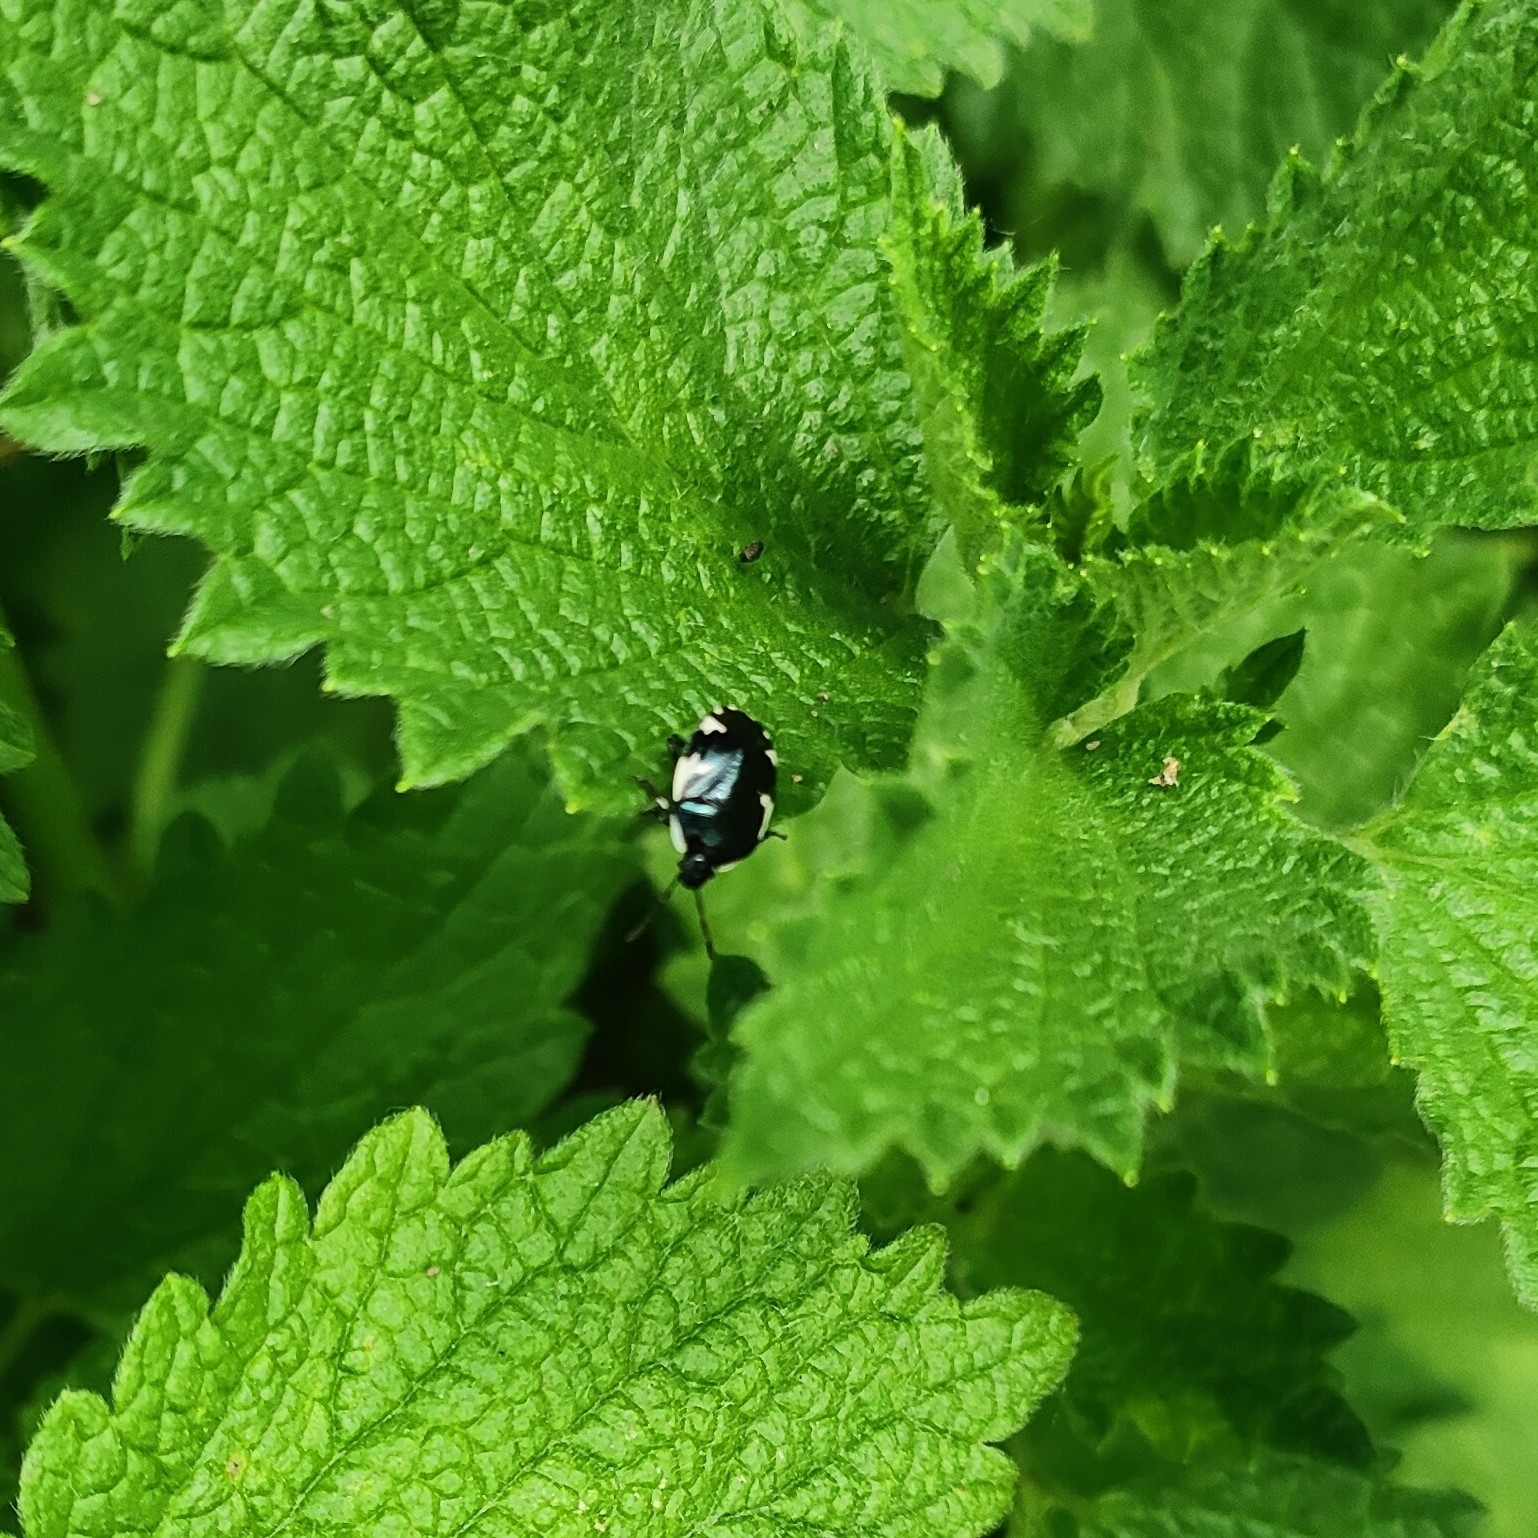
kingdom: Animalia
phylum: Arthropoda
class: Insecta
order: Hemiptera
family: Cydnidae
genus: Tritomegas
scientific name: Tritomegas sexmaculatus
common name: Rambur's pied shieldbug
